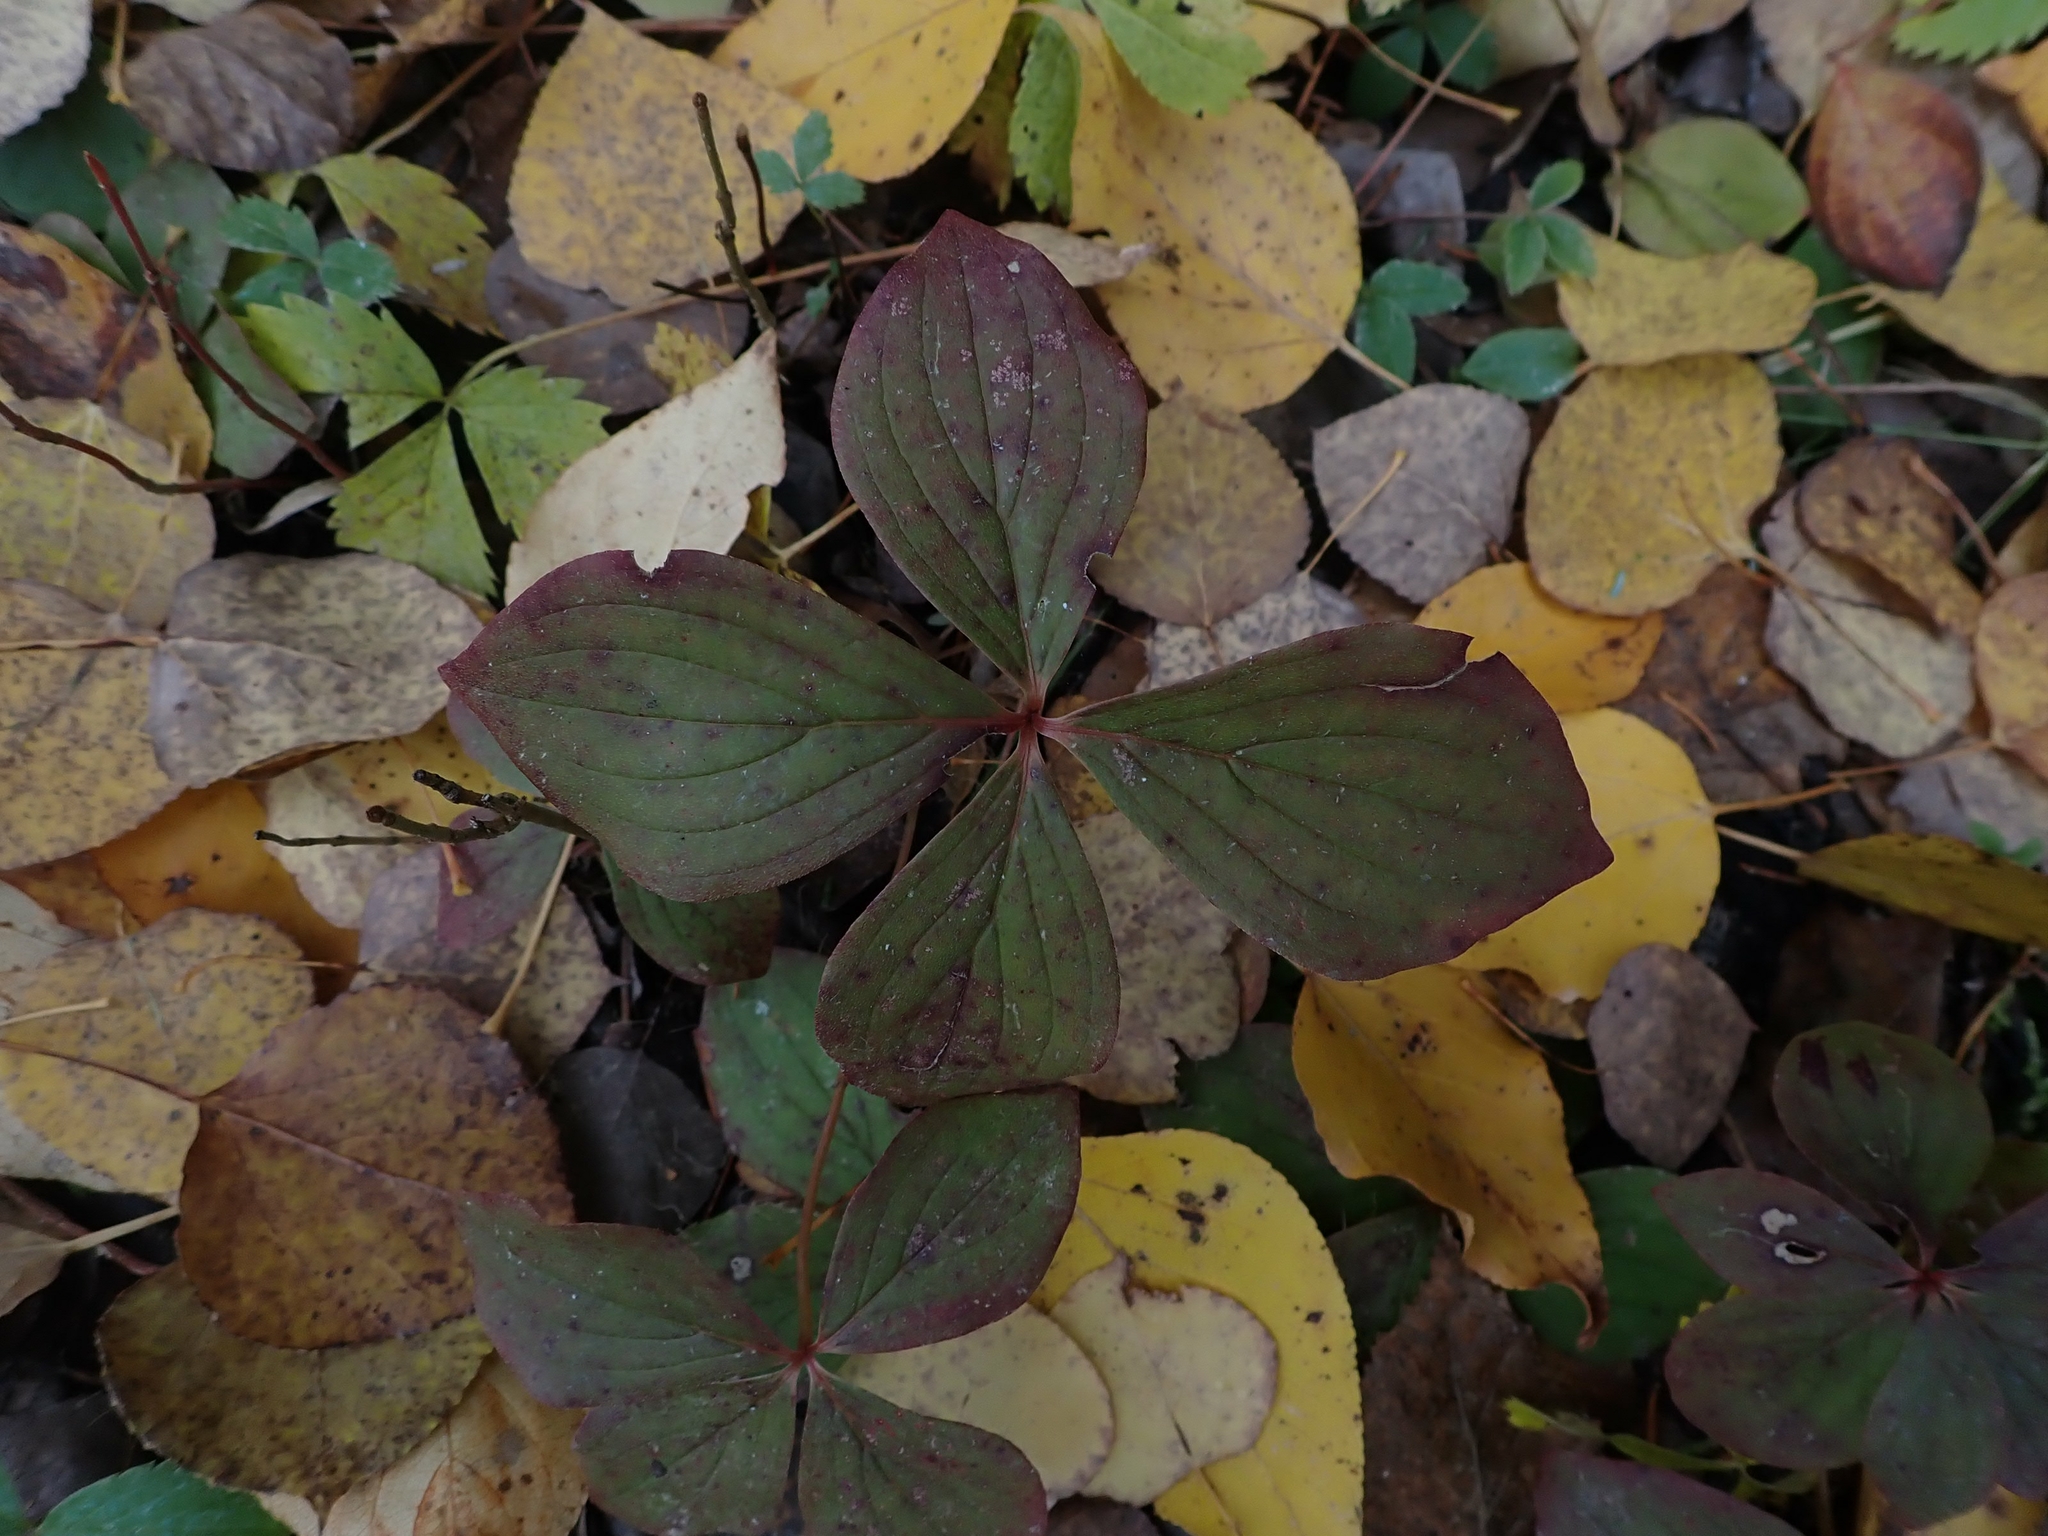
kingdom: Plantae
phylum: Tracheophyta
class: Magnoliopsida
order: Cornales
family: Cornaceae
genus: Cornus
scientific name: Cornus canadensis
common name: Creeping dogwood
